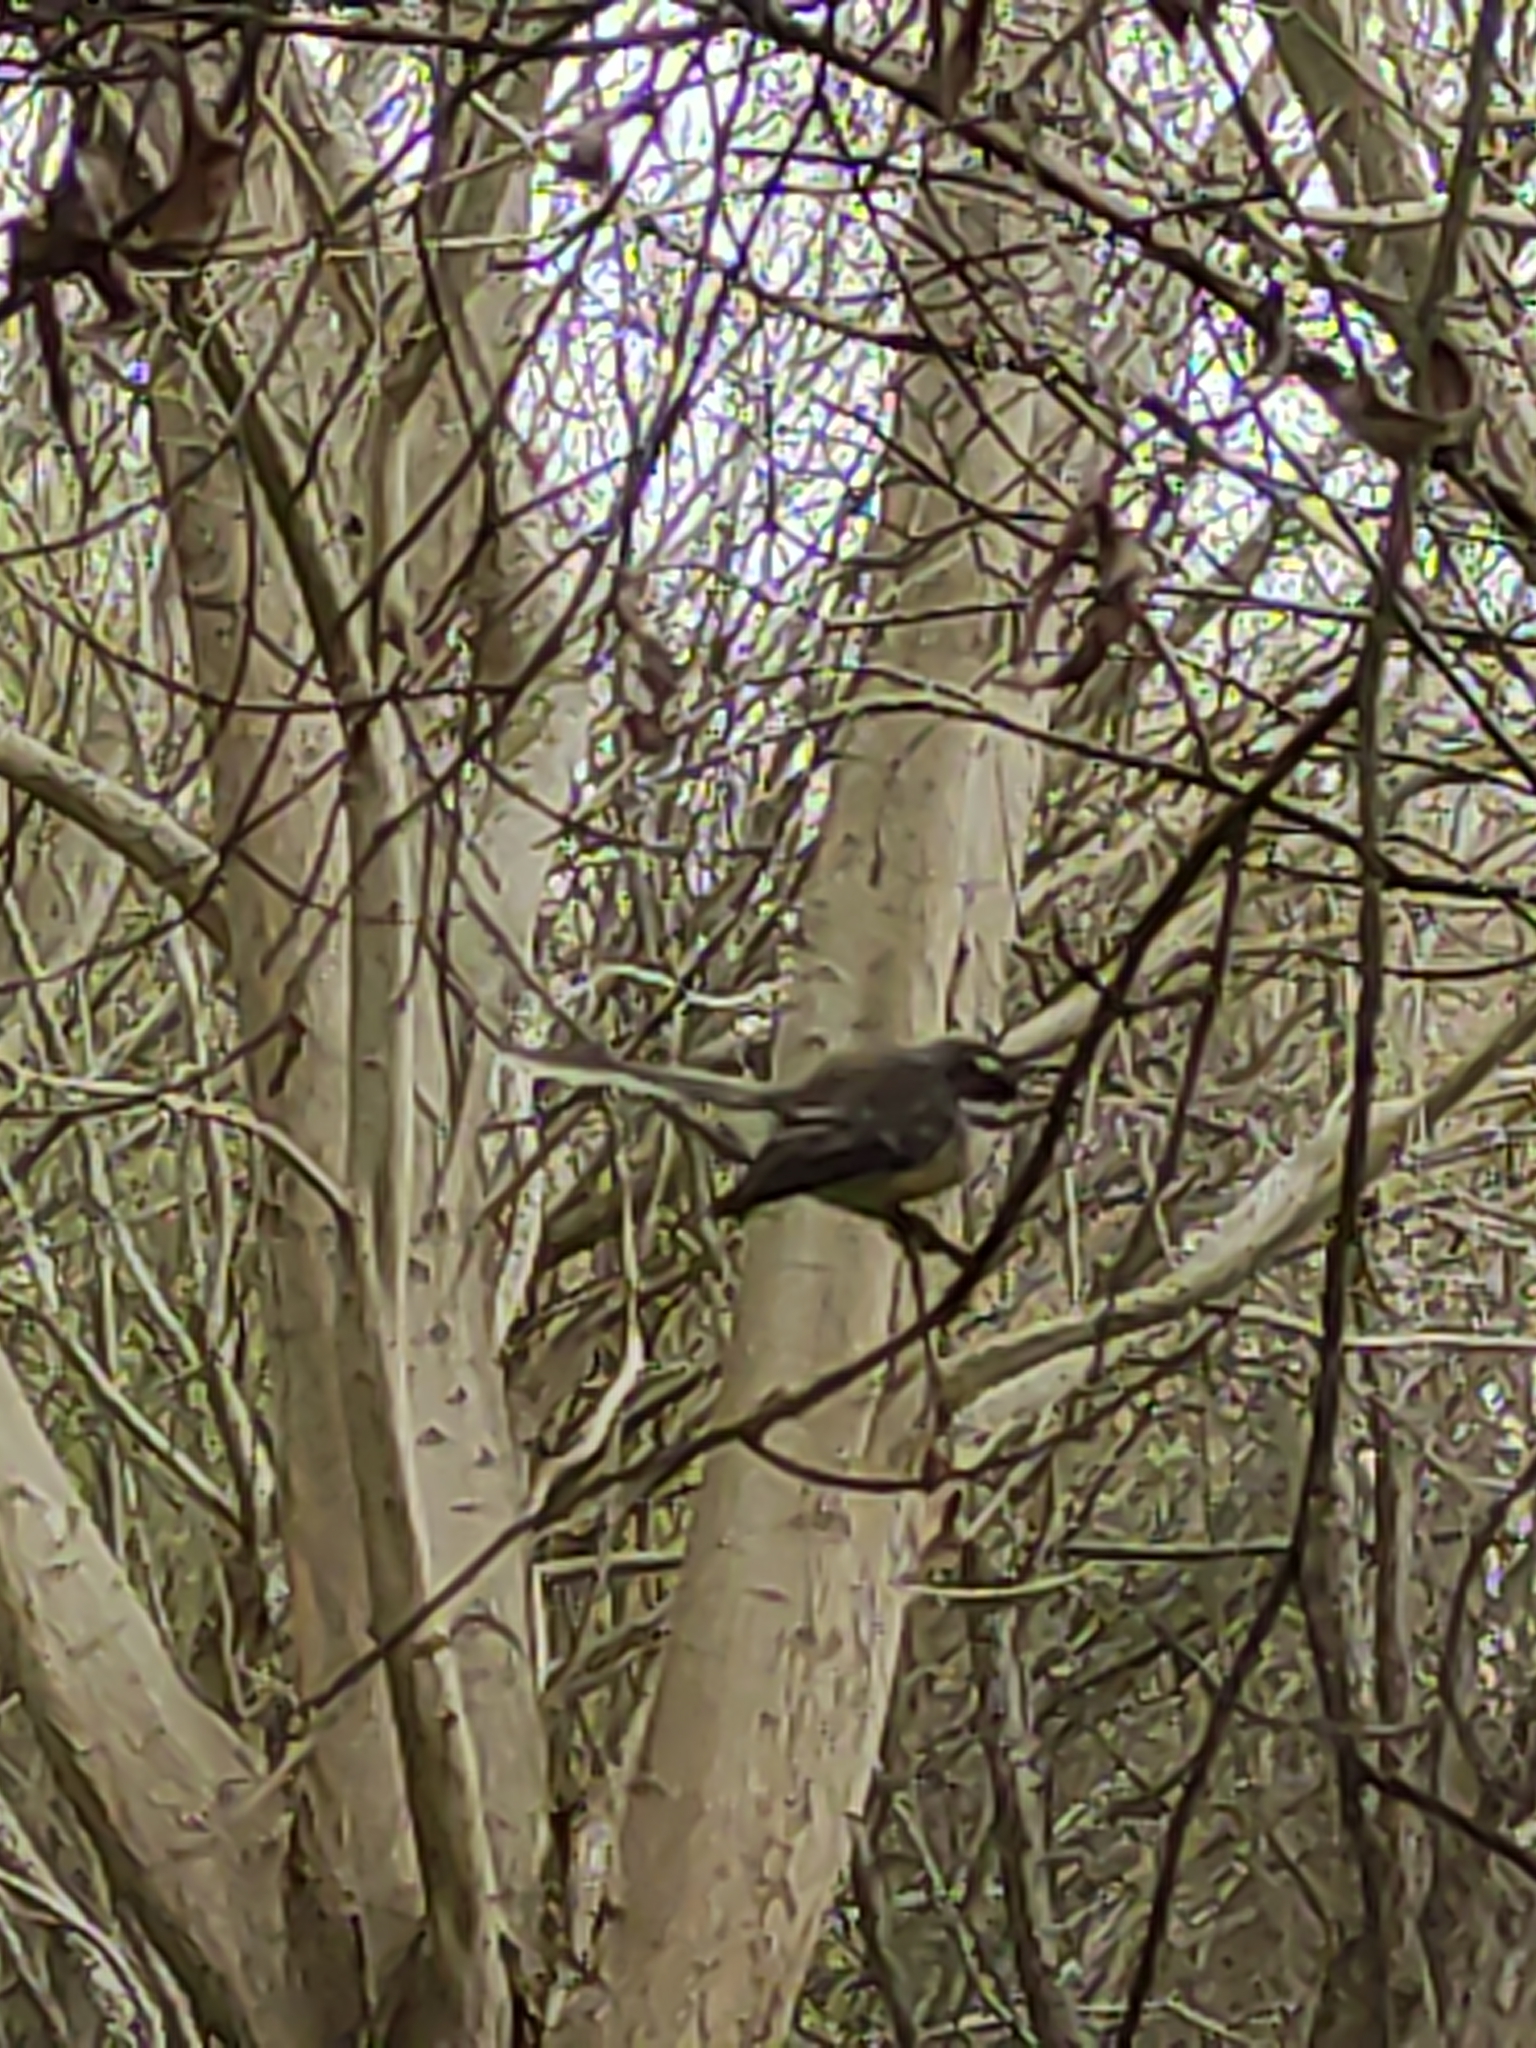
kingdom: Animalia
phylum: Chordata
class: Aves
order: Passeriformes
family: Rhipiduridae
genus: Rhipidura
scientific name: Rhipidura fuliginosa
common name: New zealand fantail
